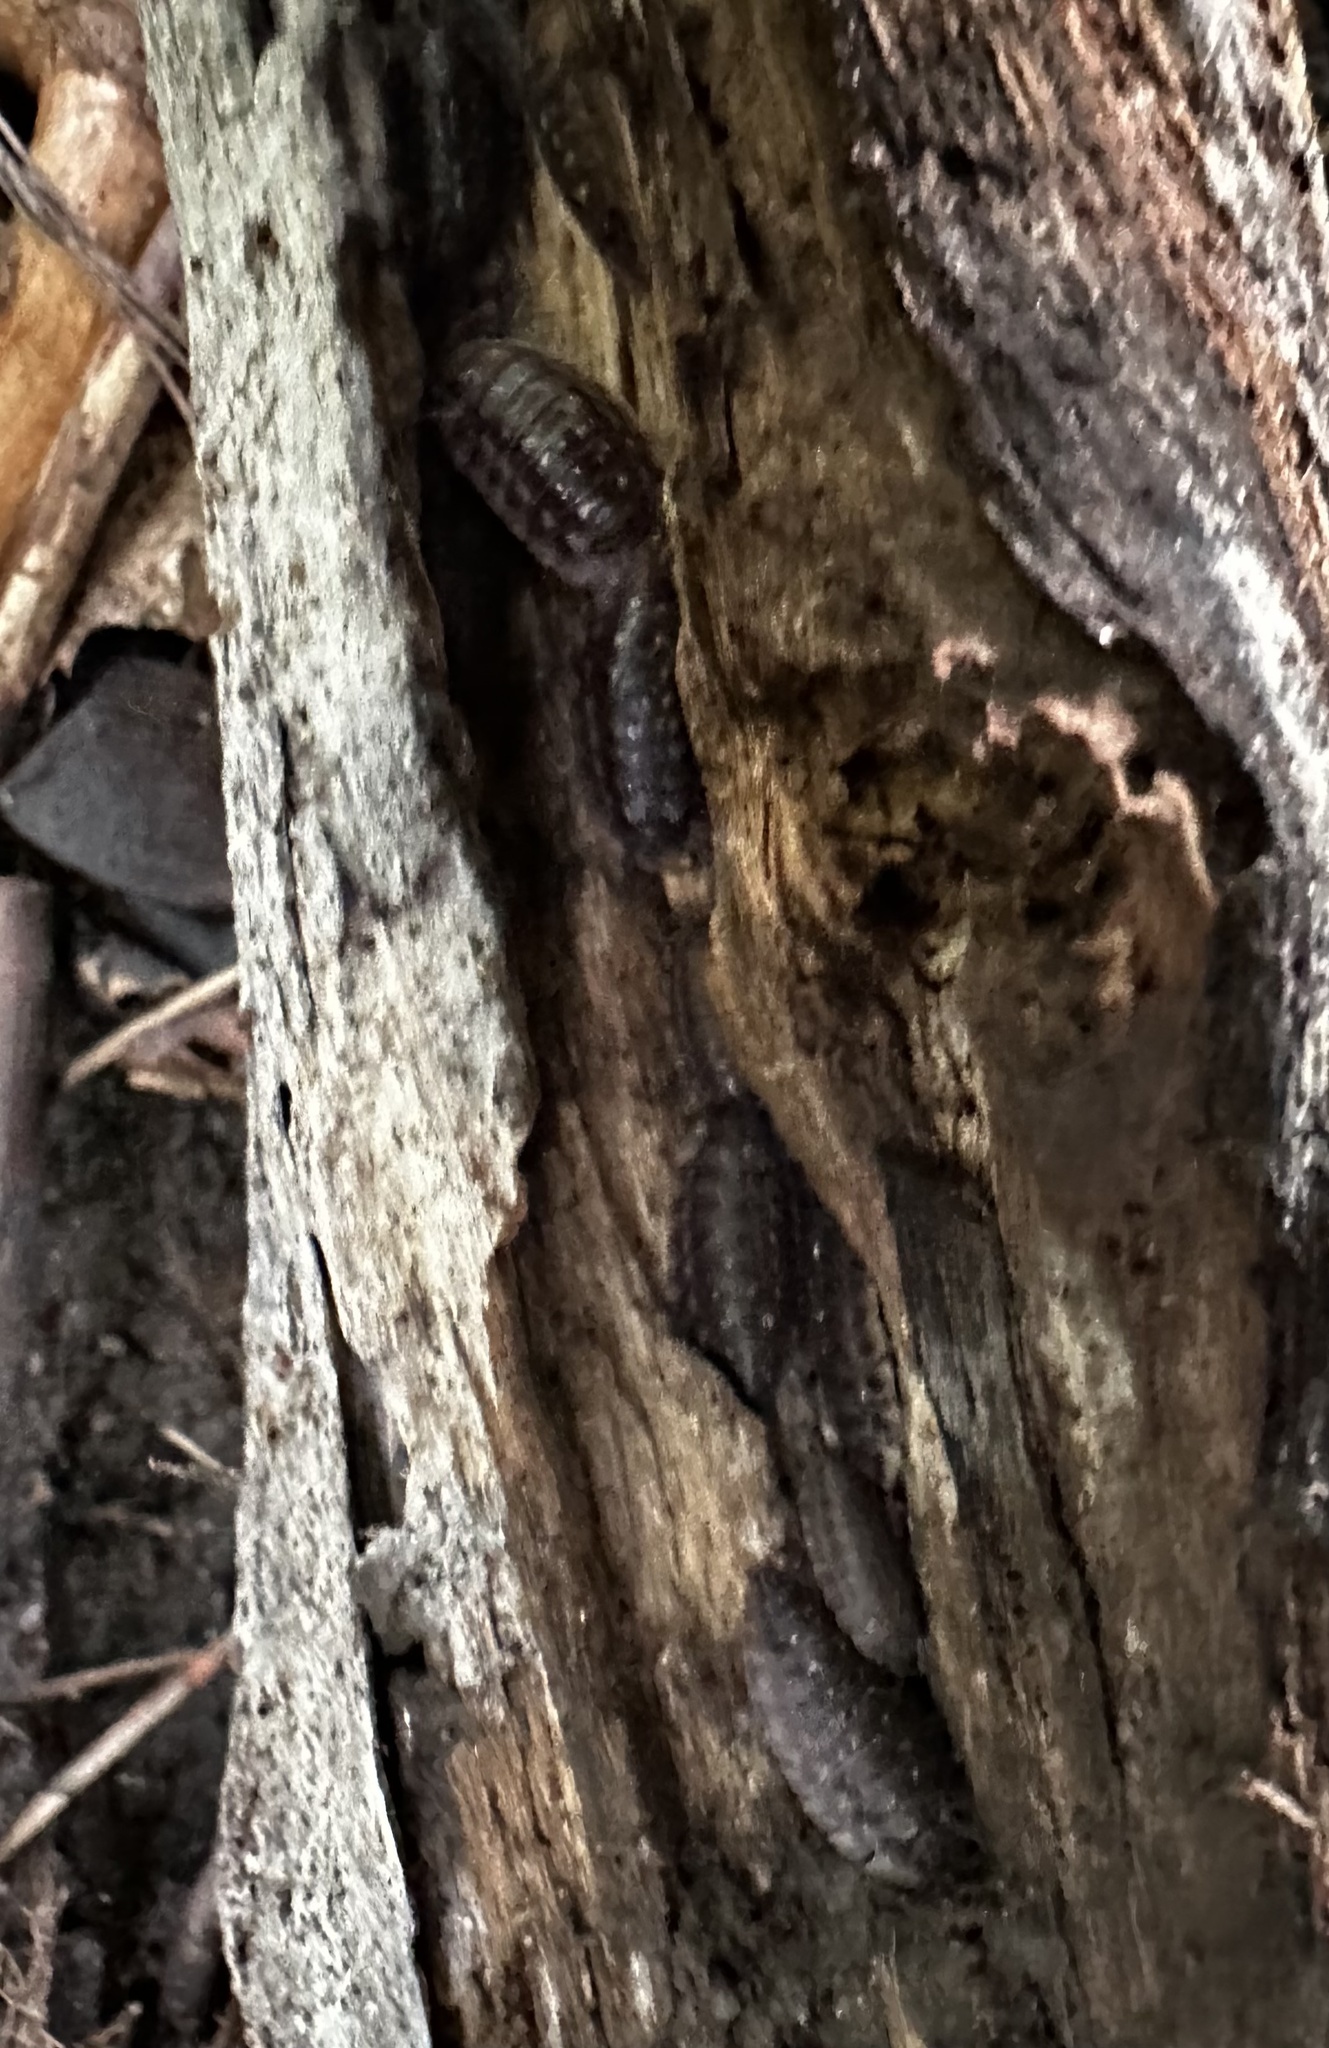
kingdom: Animalia
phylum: Arthropoda
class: Malacostraca
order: Isopoda
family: Oniscidae
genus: Oniscus
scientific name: Oniscus asellus
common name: Common shiny woodlouse
